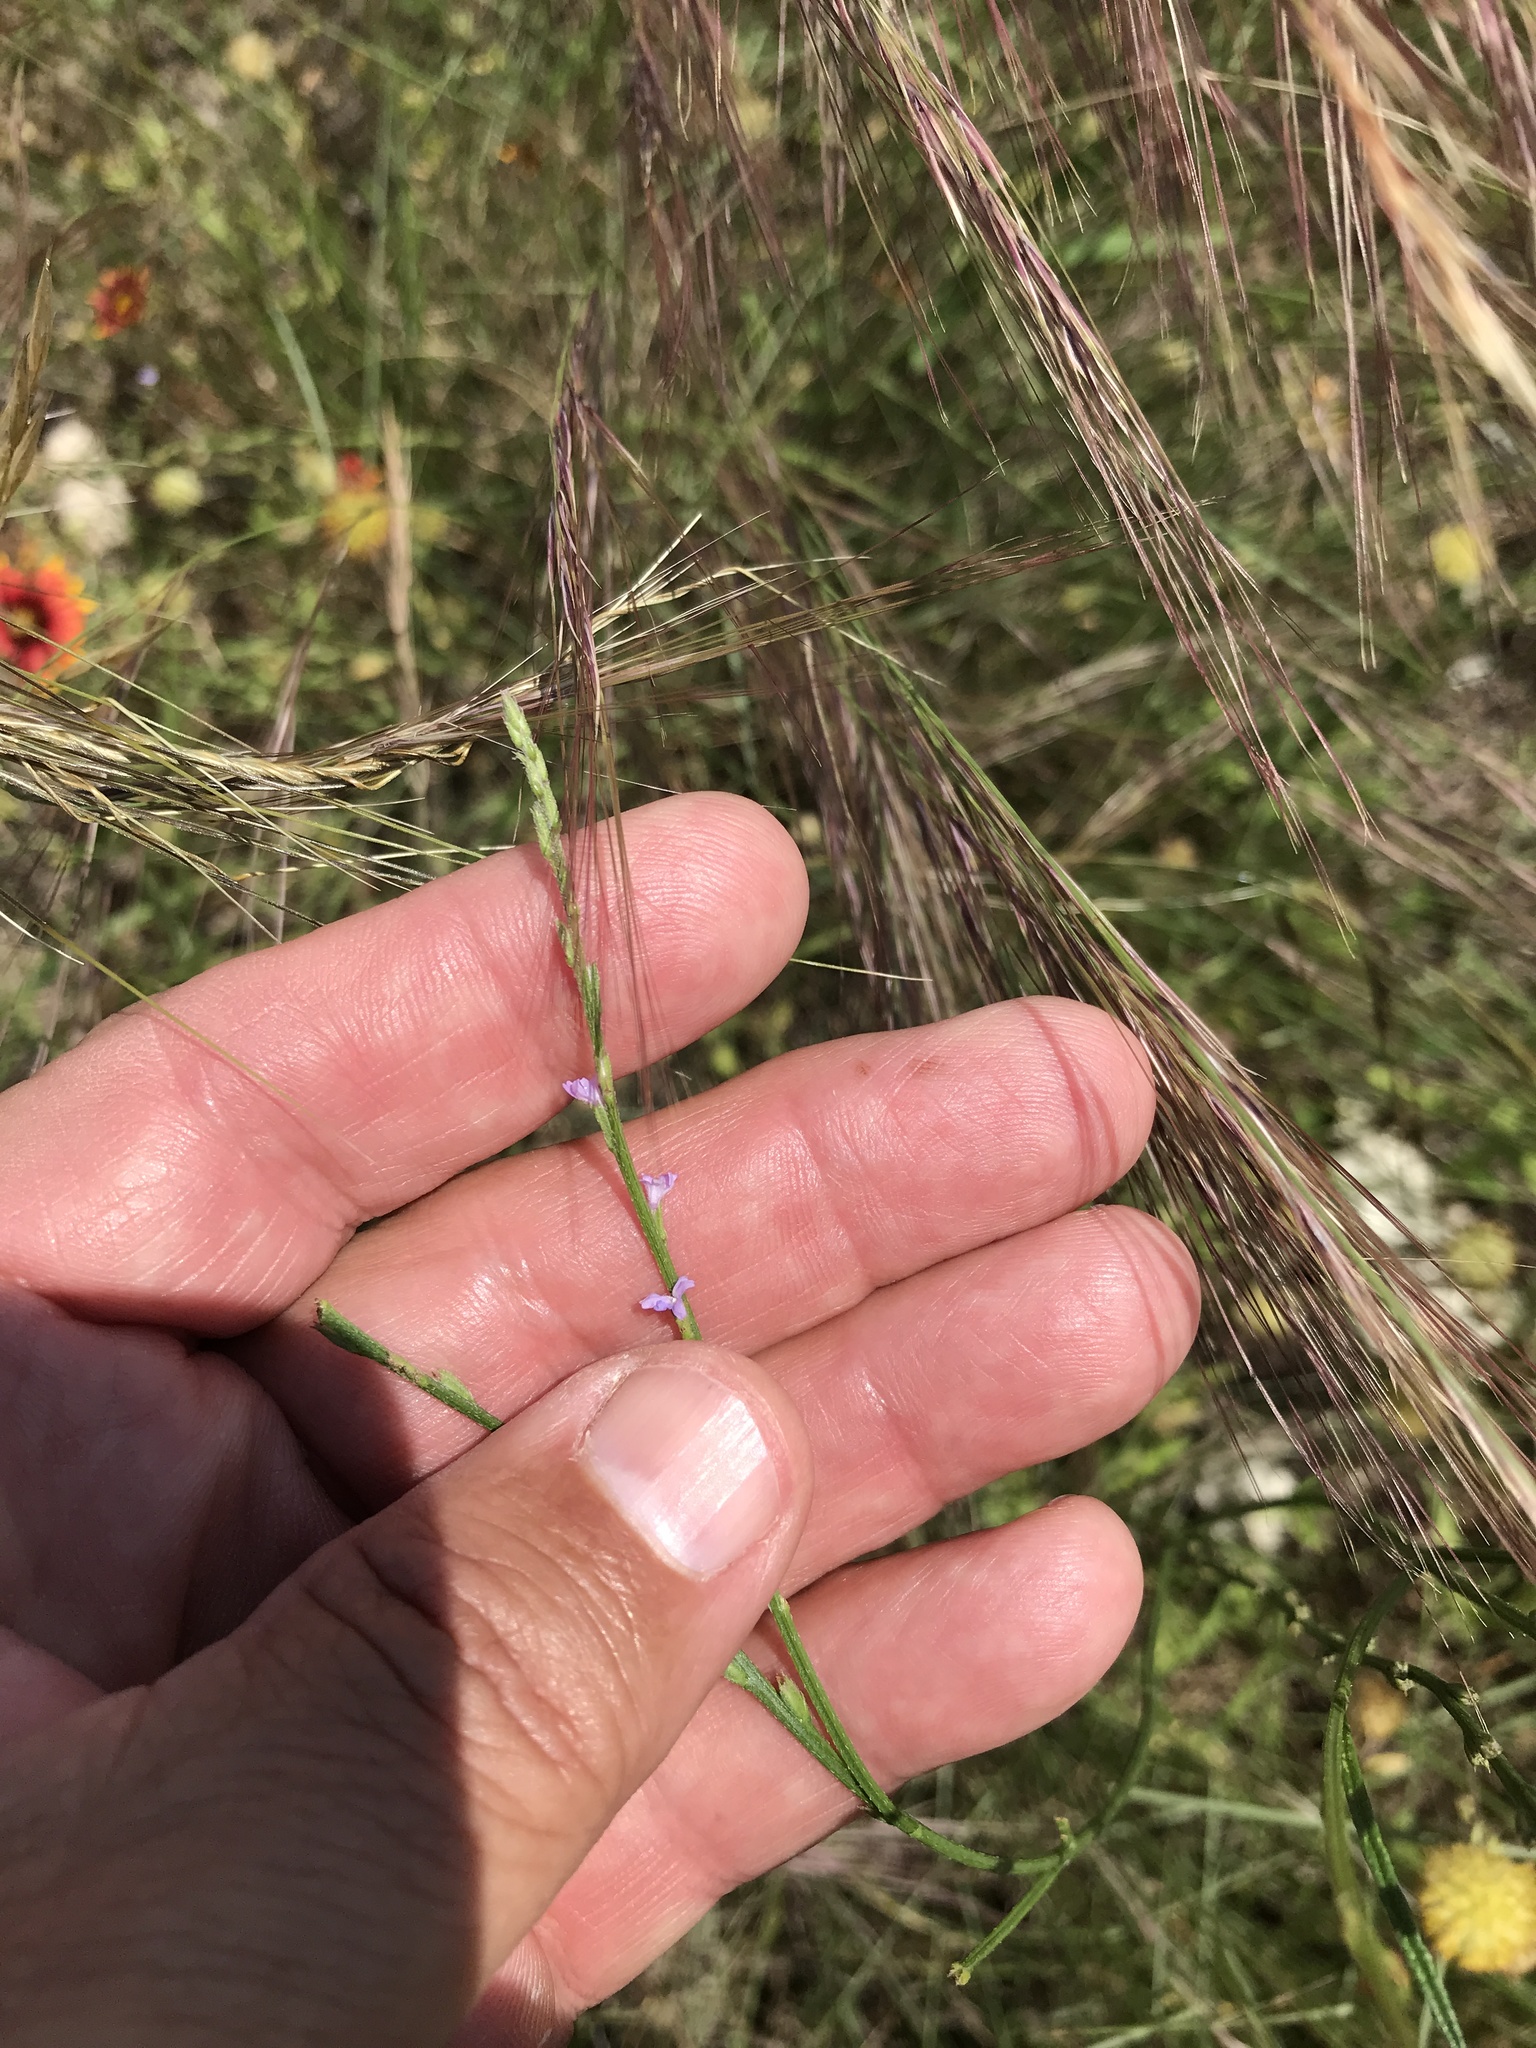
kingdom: Plantae
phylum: Tracheophyta
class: Magnoliopsida
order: Lamiales
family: Verbenaceae
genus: Verbena
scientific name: Verbena halei
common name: Texas vervain
